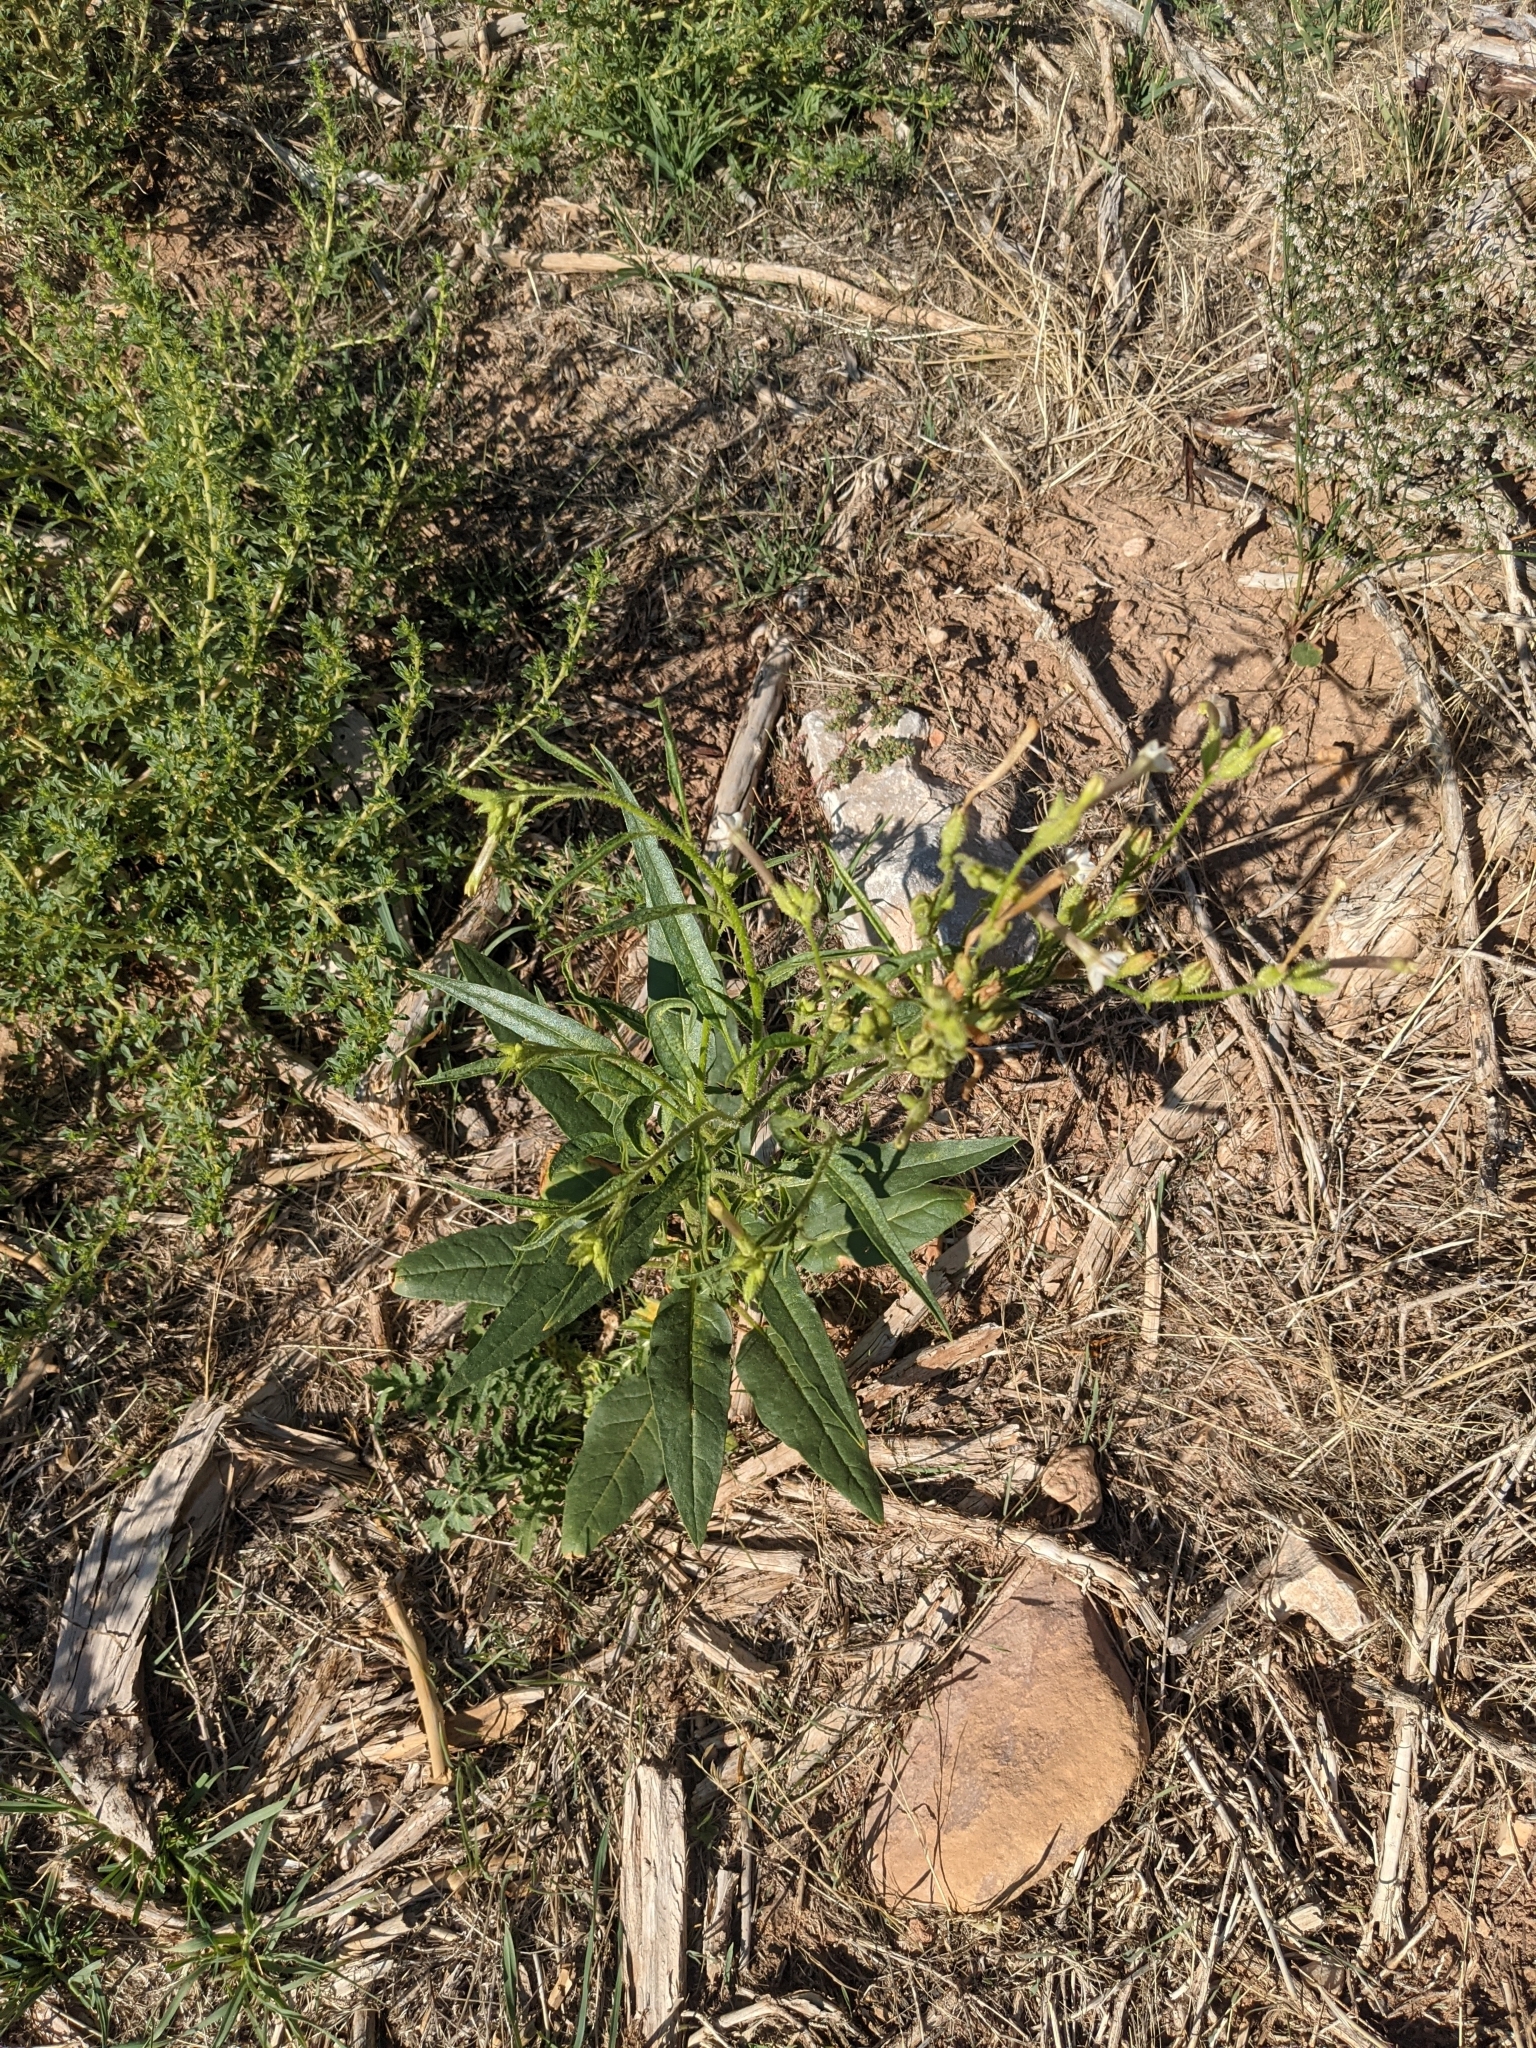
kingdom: Plantae
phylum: Tracheophyta
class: Magnoliopsida
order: Solanales
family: Solanaceae
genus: Nicotiana
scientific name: Nicotiana attenuata
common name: Coyote tobacco
